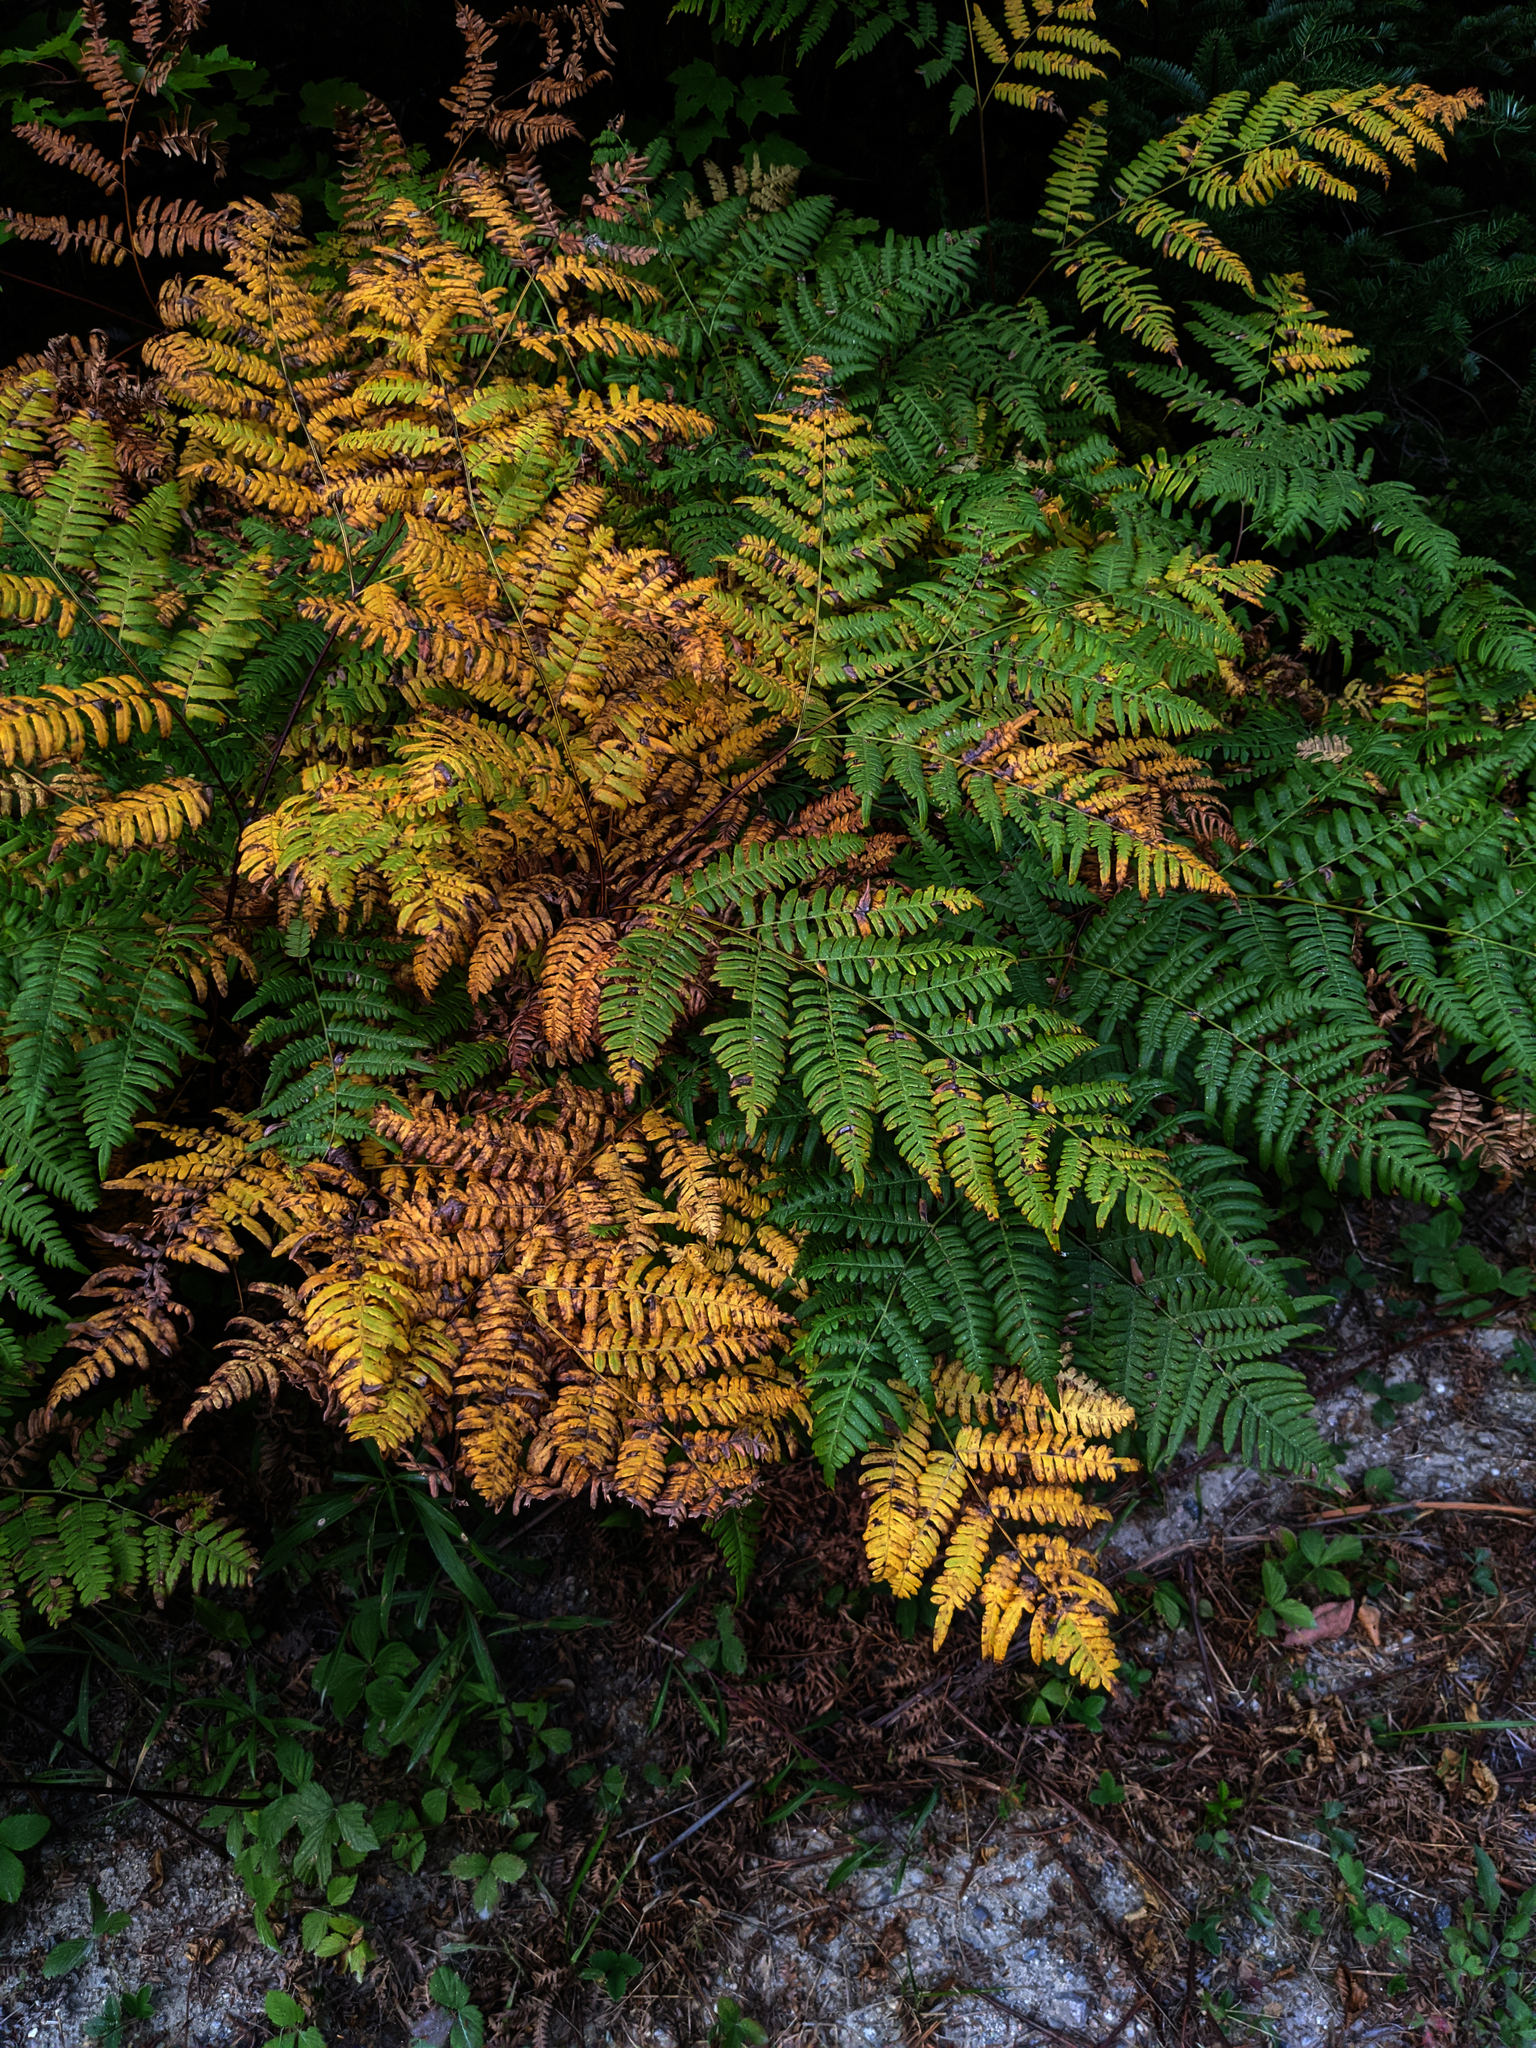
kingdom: Plantae
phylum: Tracheophyta
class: Polypodiopsida
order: Polypodiales
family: Dennstaedtiaceae
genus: Pteridium
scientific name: Pteridium aquilinum
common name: Bracken
